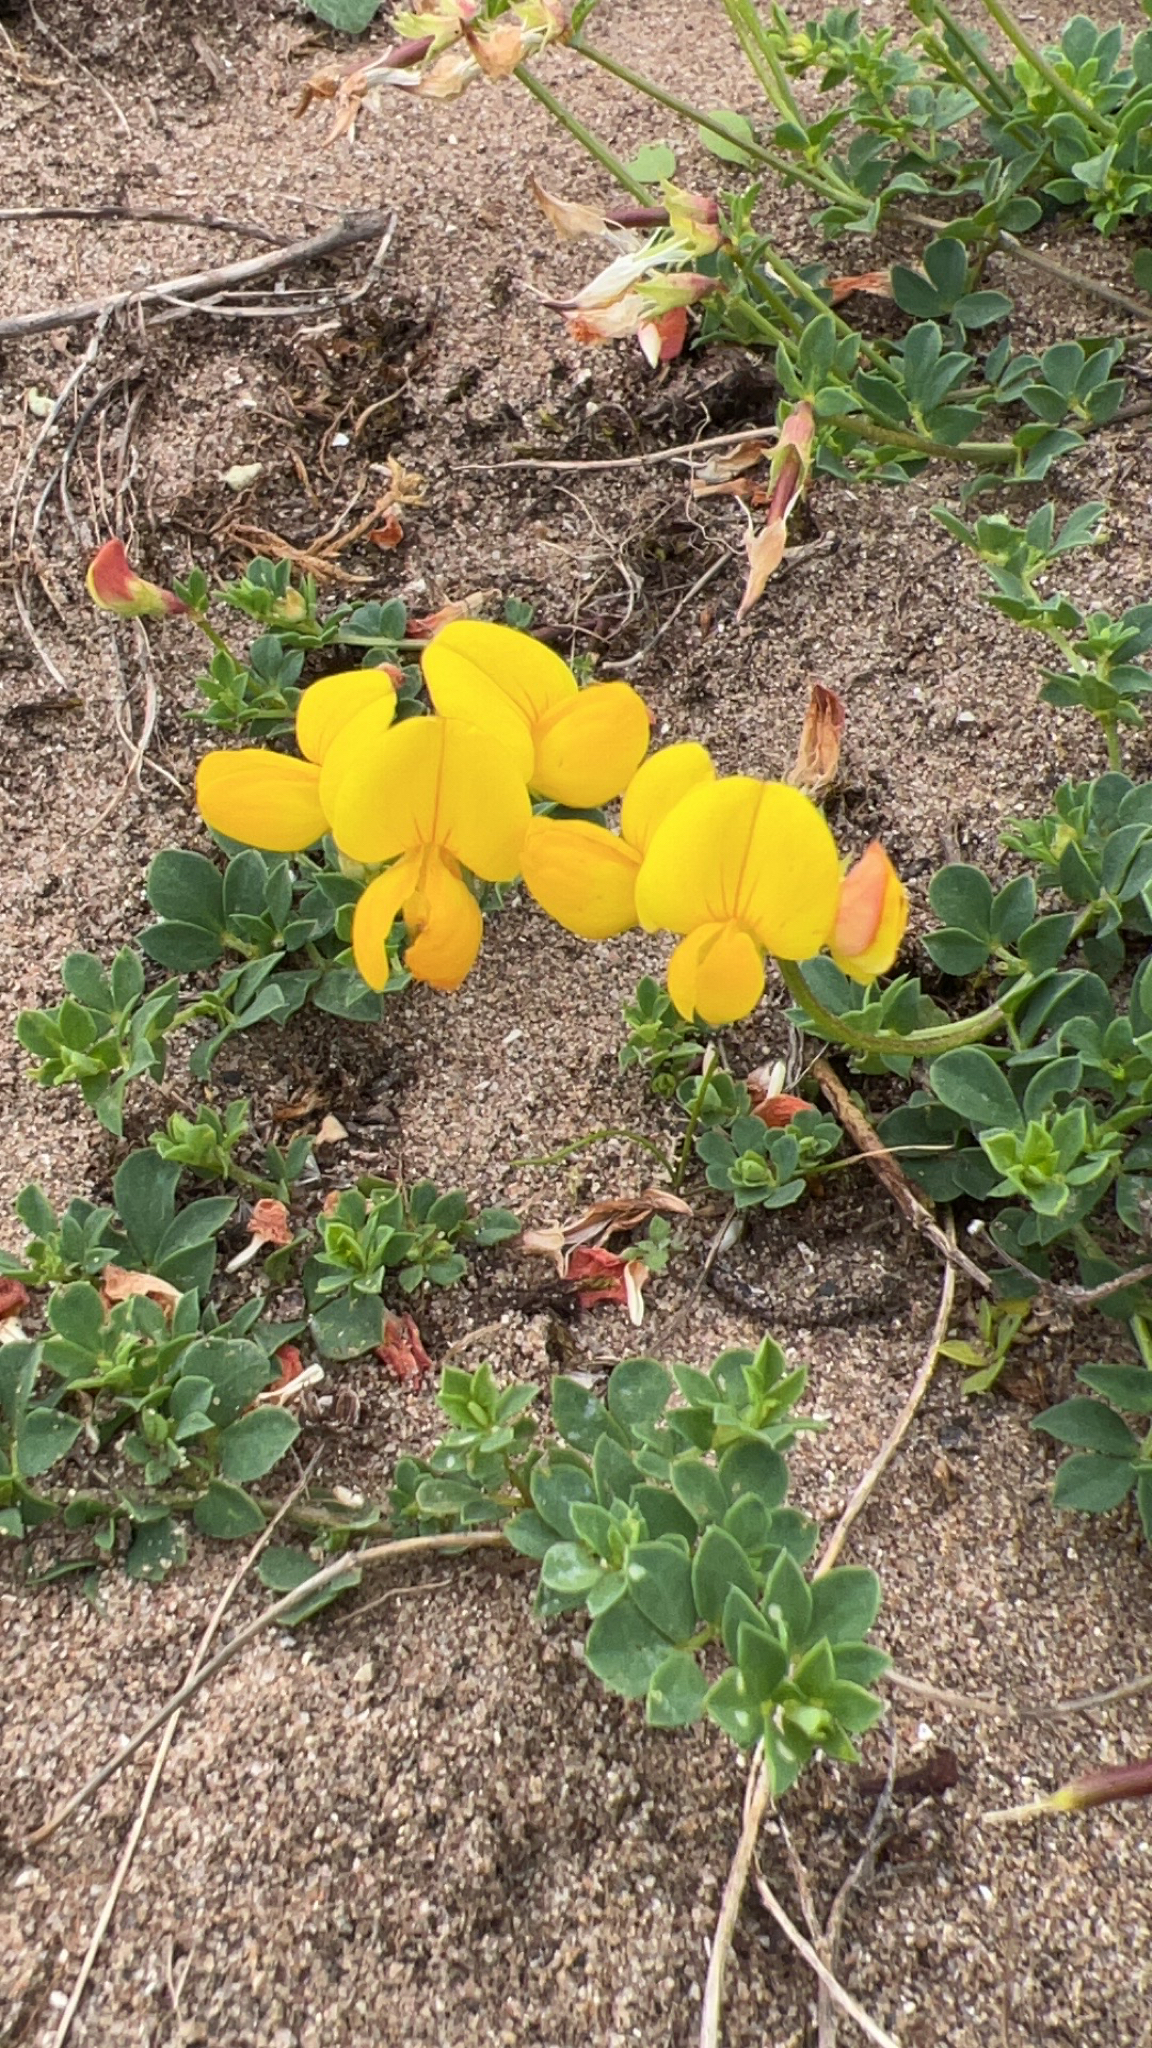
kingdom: Plantae
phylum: Tracheophyta
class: Magnoliopsida
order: Fabales
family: Fabaceae
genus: Lotus
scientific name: Lotus corniculatus
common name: Common bird's-foot-trefoil
